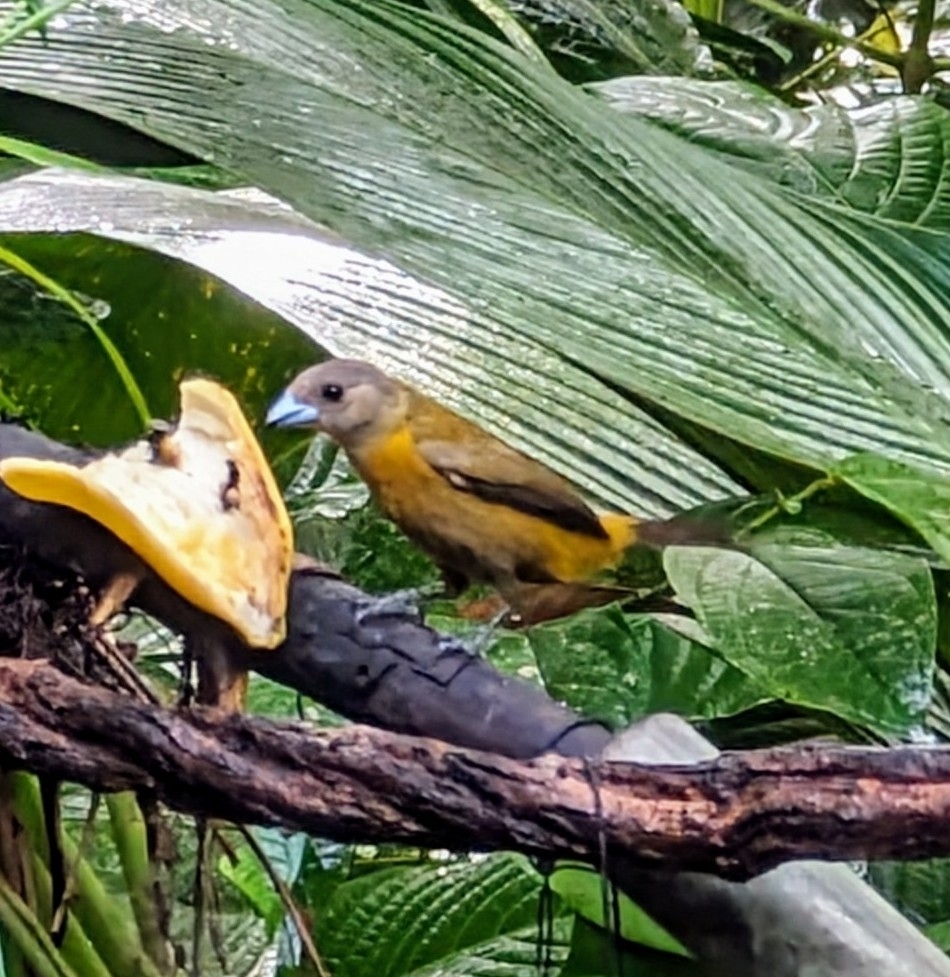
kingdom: Animalia
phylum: Chordata
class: Aves
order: Passeriformes
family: Thraupidae
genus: Ramphocelus
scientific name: Ramphocelus passerinii
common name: Passerini's tanager
